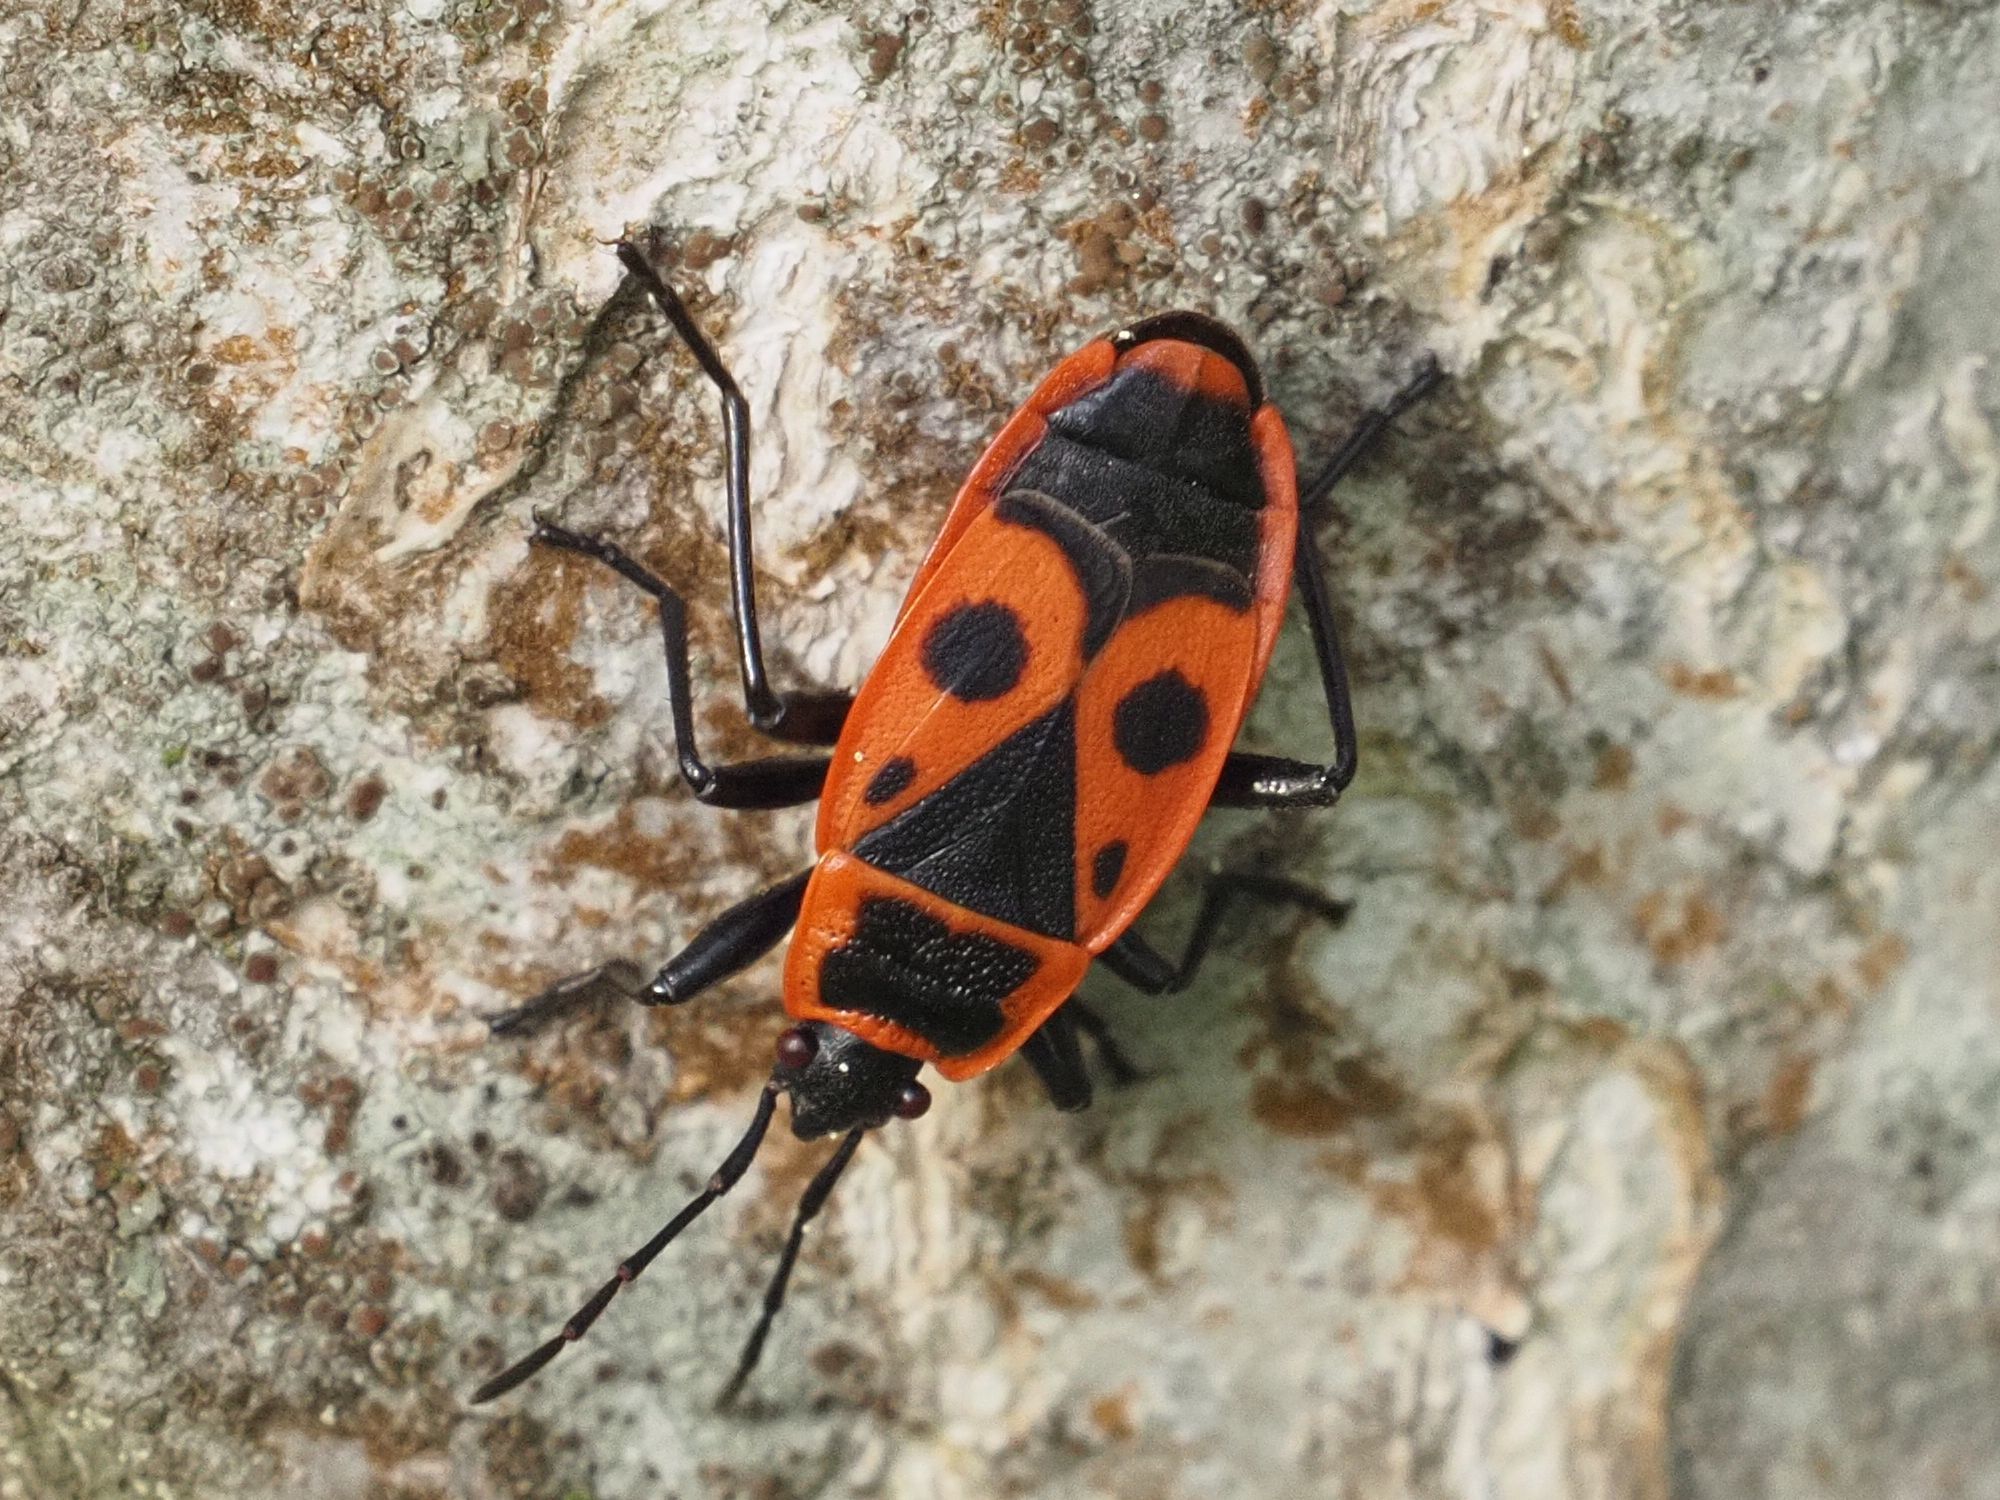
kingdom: Animalia
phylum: Arthropoda
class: Insecta
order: Hemiptera
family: Pyrrhocoridae
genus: Pyrrhocoris
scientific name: Pyrrhocoris apterus
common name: Firebug
